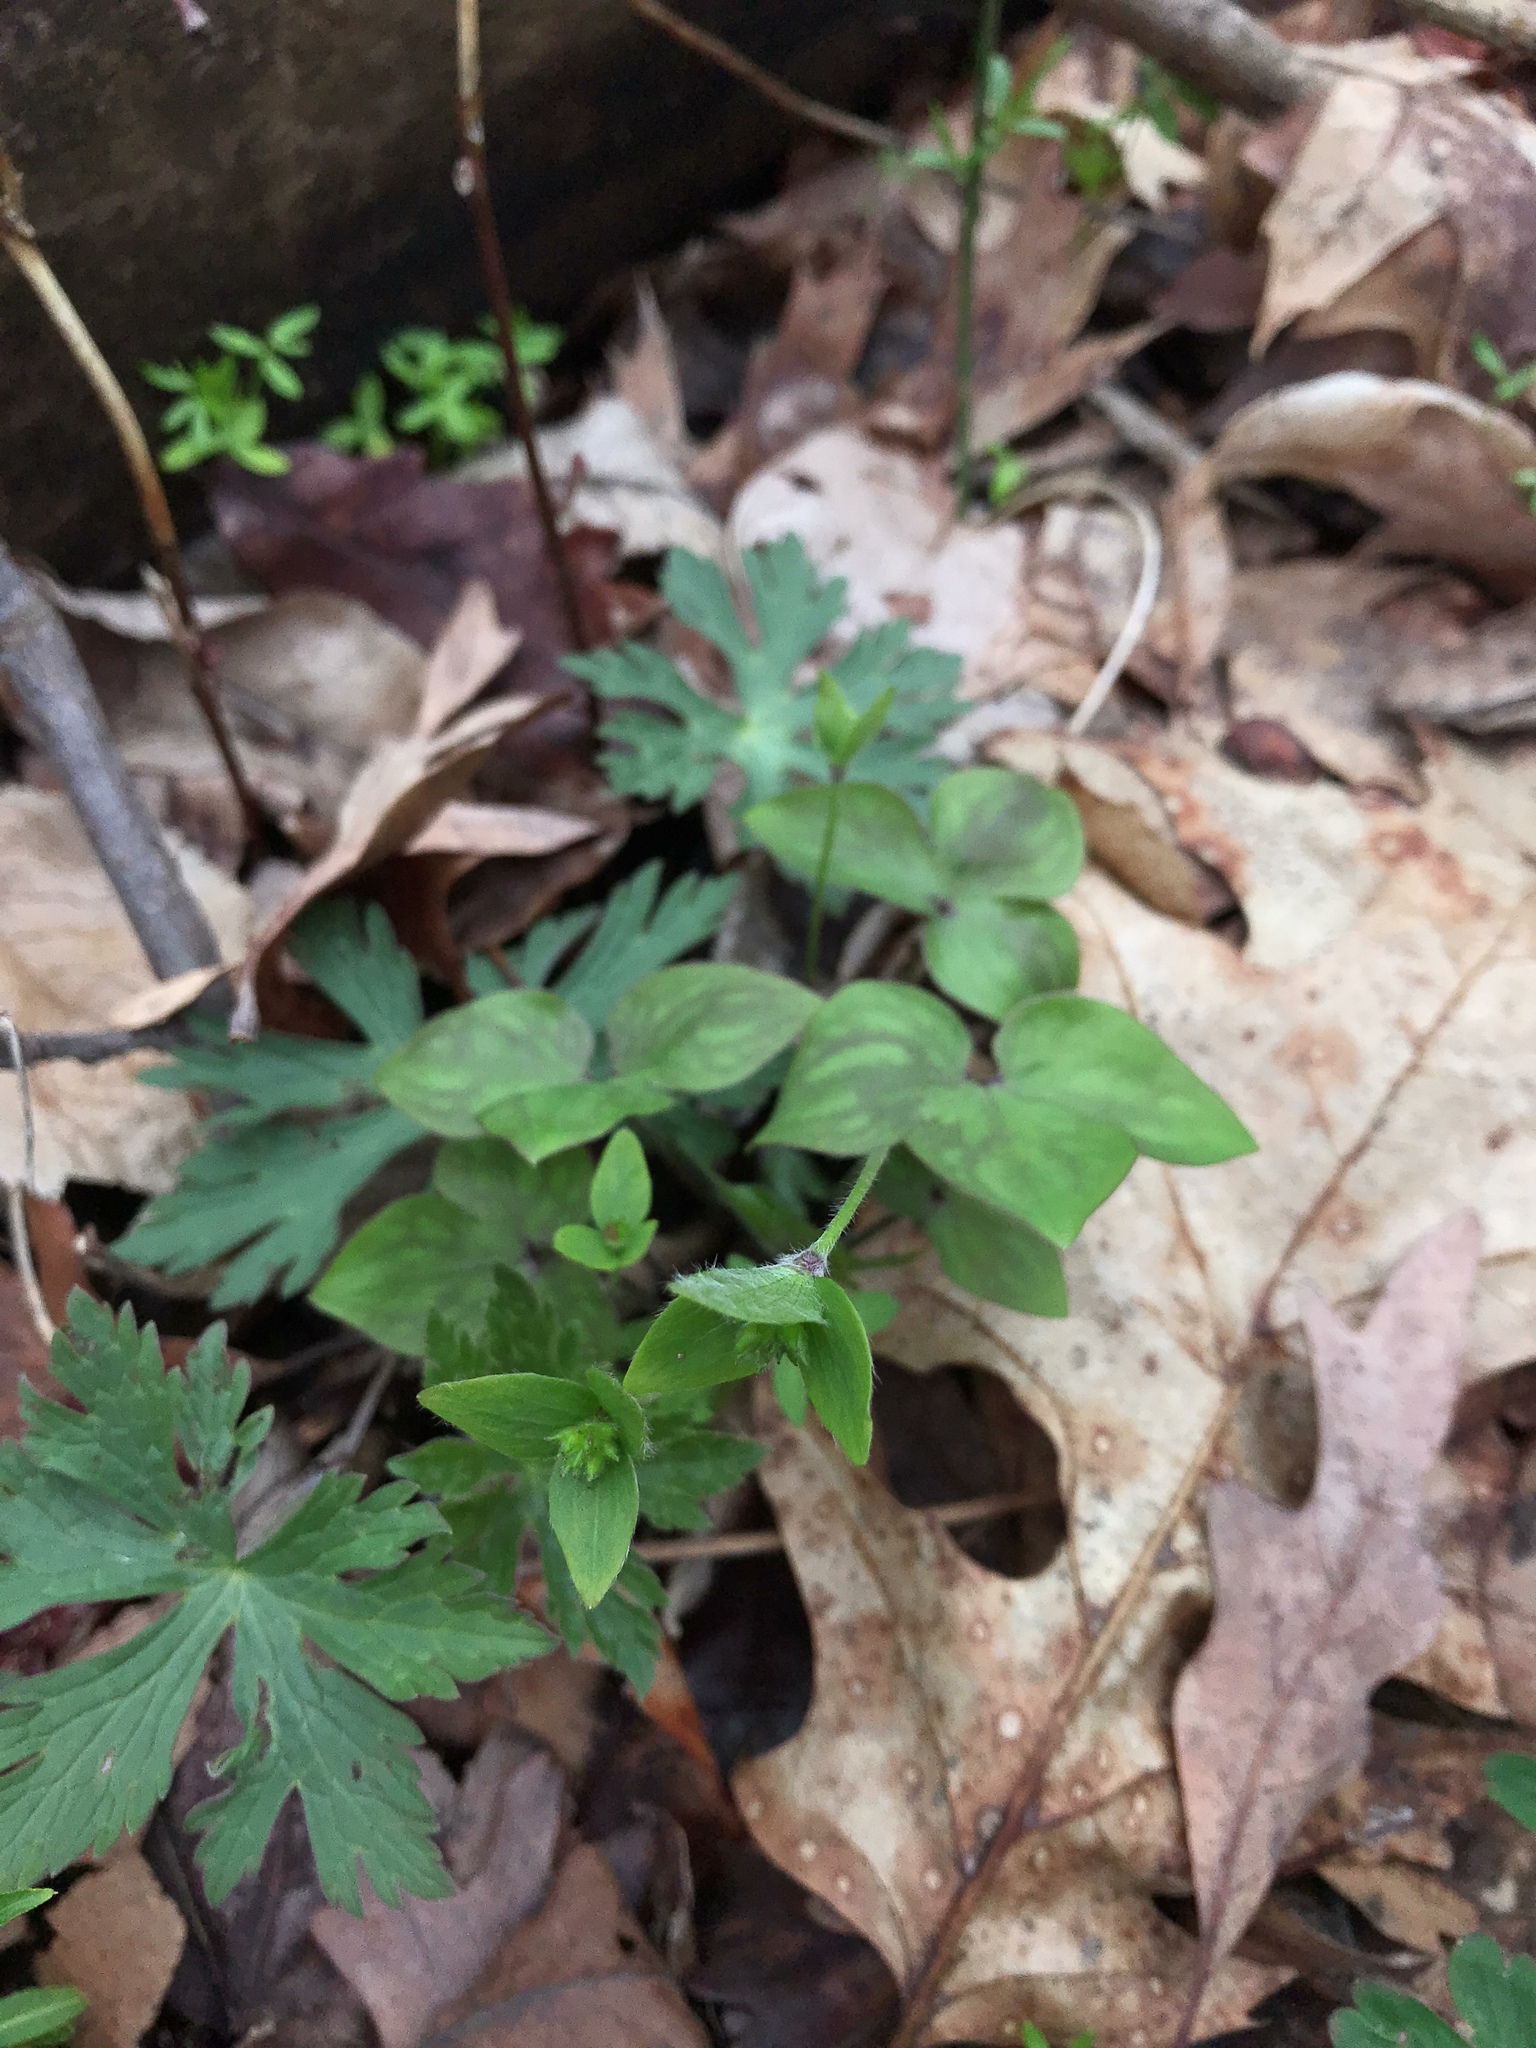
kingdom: Plantae
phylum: Tracheophyta
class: Magnoliopsida
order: Ranunculales
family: Ranunculaceae
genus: Hepatica
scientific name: Hepatica acutiloba
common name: Sharp-lobed hepatica
